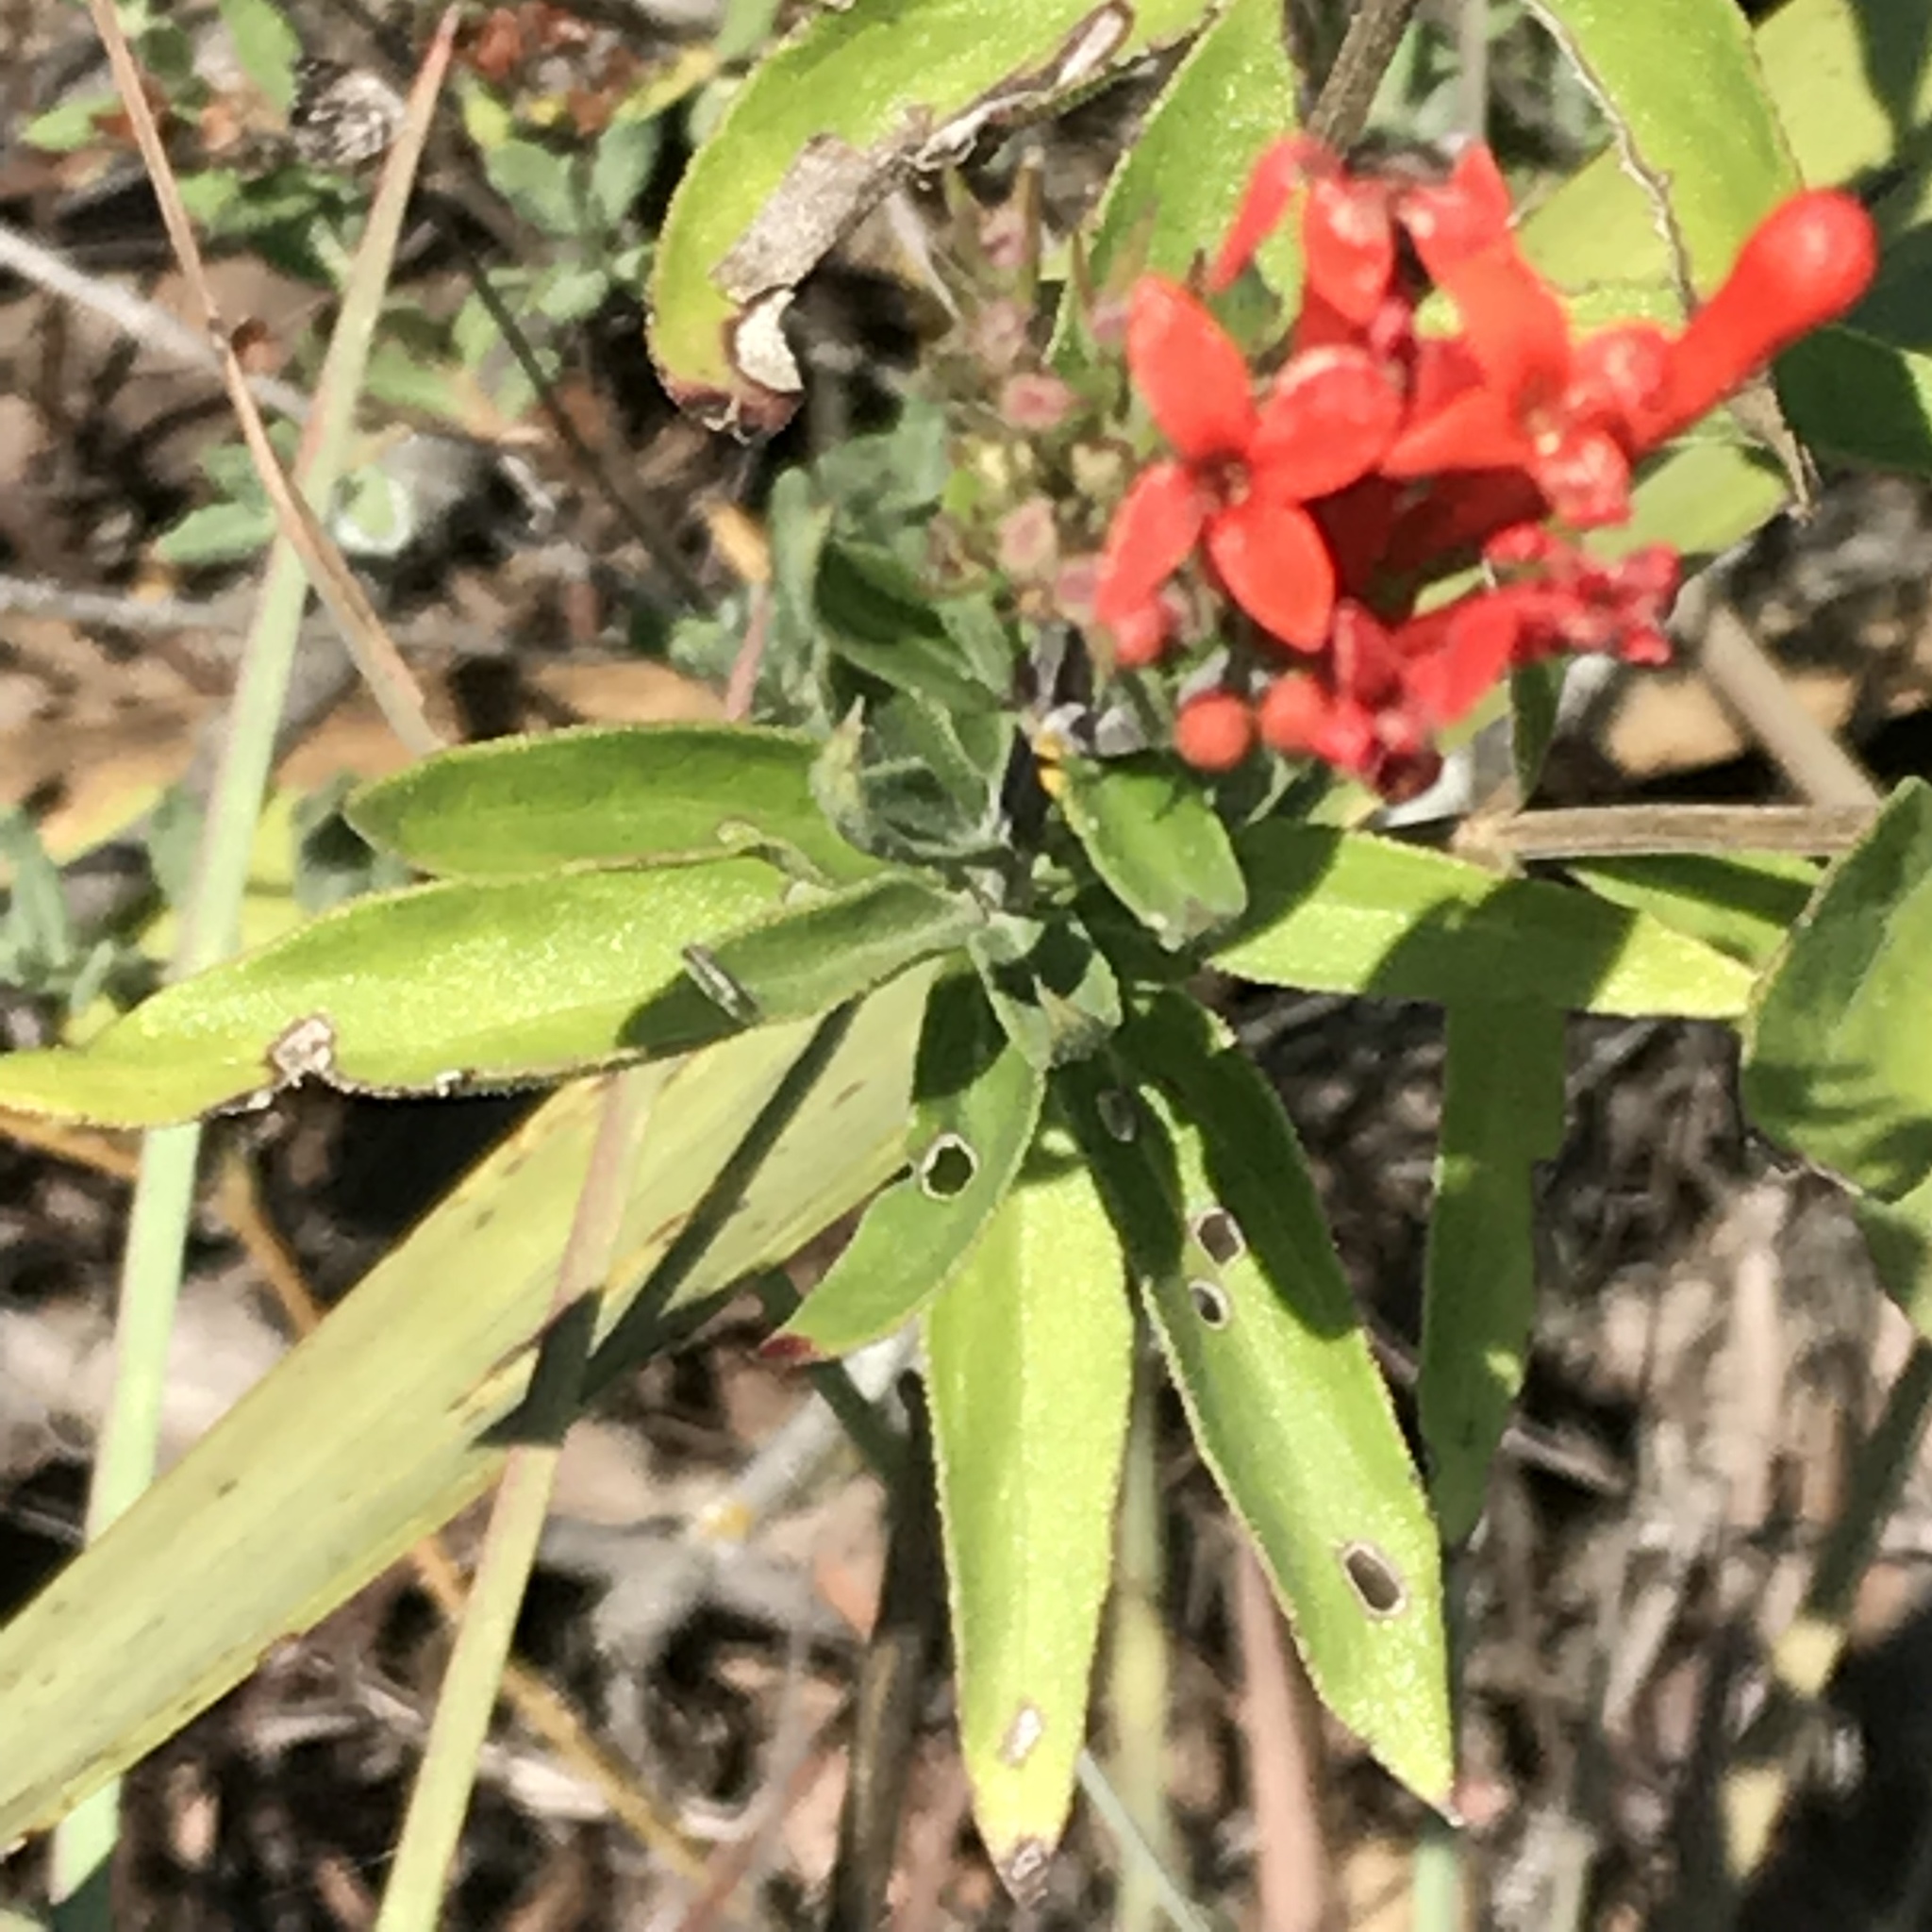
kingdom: Plantae
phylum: Tracheophyta
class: Magnoliopsida
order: Gentianales
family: Rubiaceae
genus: Bouvardia
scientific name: Bouvardia ternifolia
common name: Scarlet bouvardia
